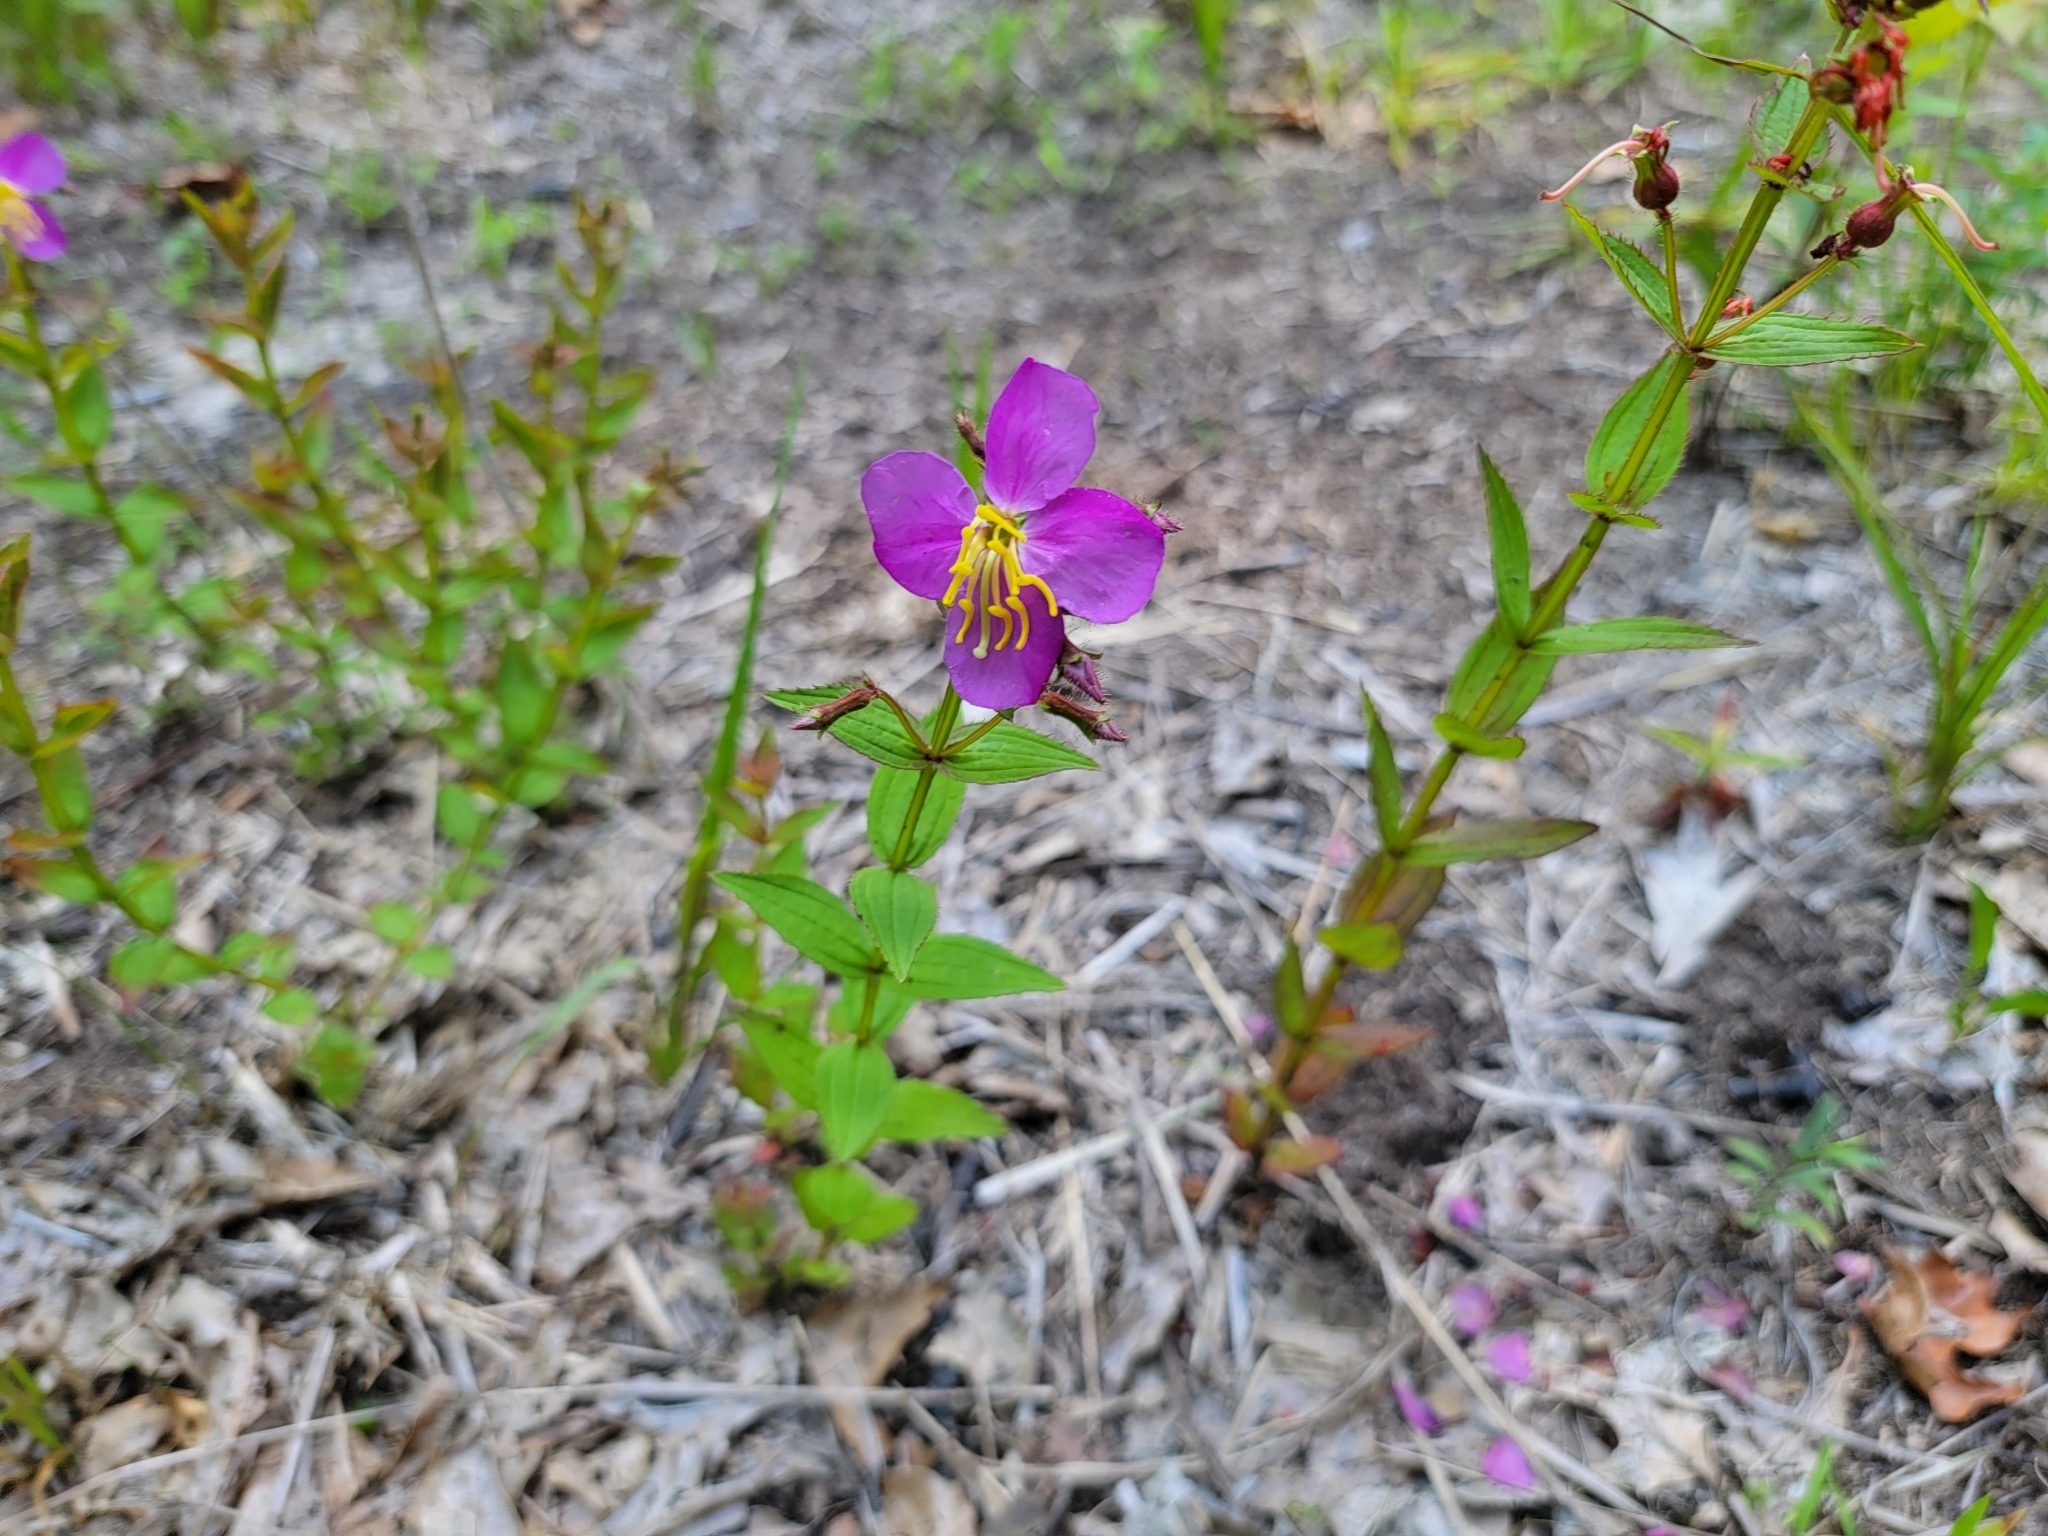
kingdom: Plantae
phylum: Tracheophyta
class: Magnoliopsida
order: Myrtales
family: Melastomataceae
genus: Rhexia
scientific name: Rhexia virginica
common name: Common meadow beauty
